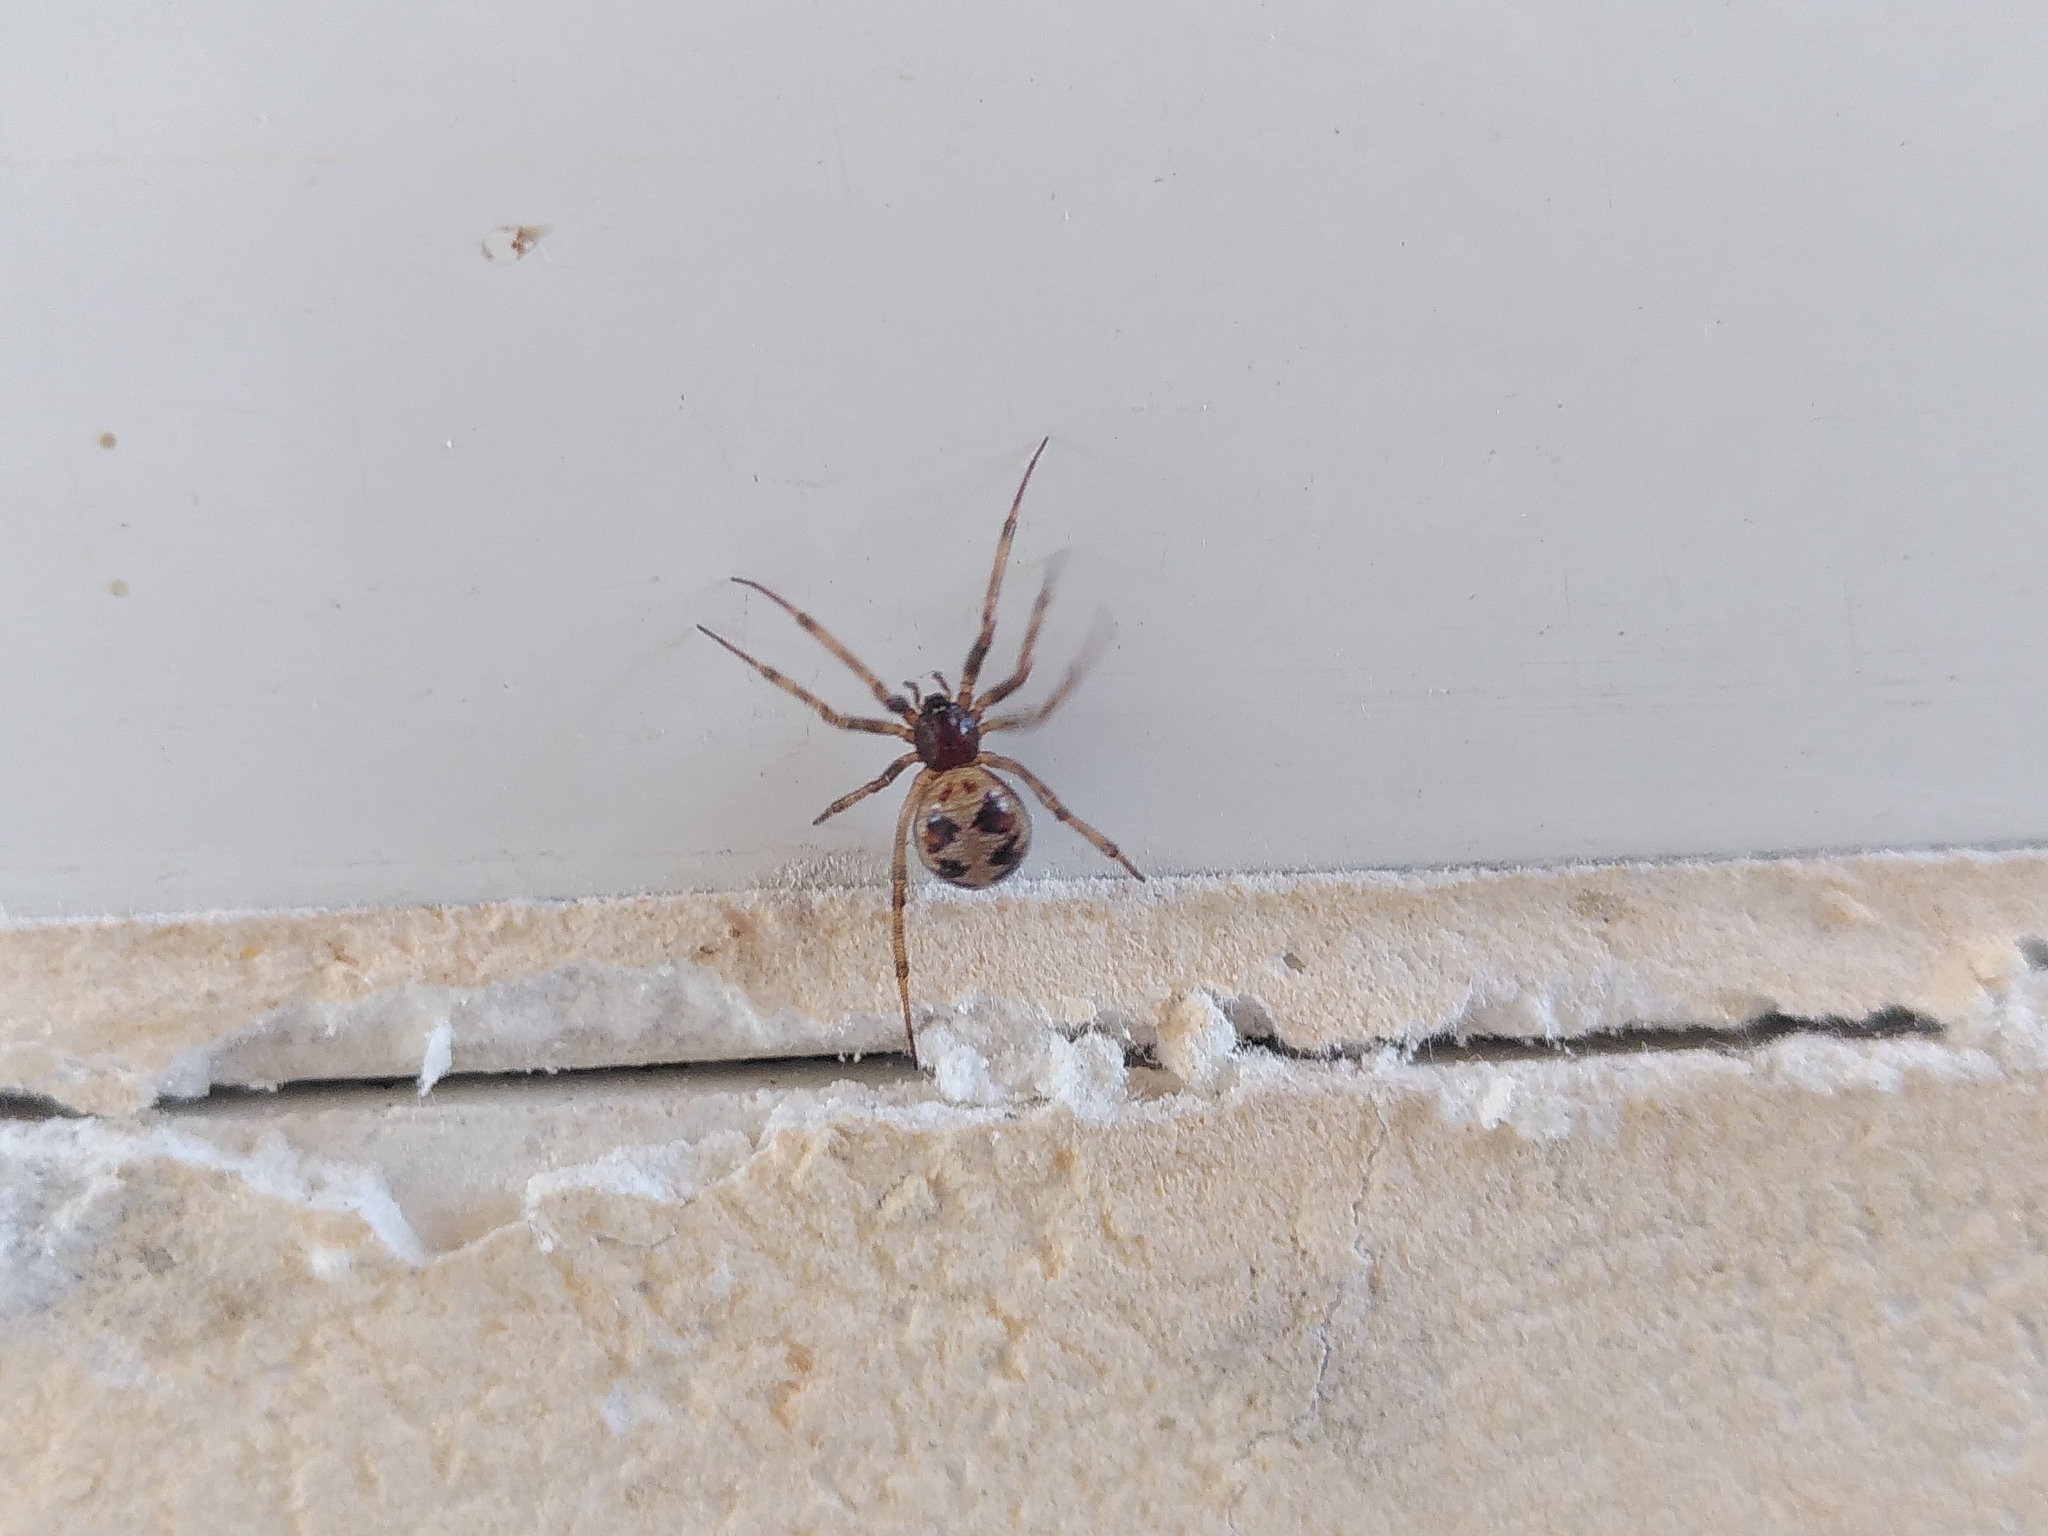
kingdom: Animalia
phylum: Arthropoda
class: Arachnida
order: Araneae
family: Theridiidae
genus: Steatoda
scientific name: Steatoda triangulosa
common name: Triangulate bud spider
